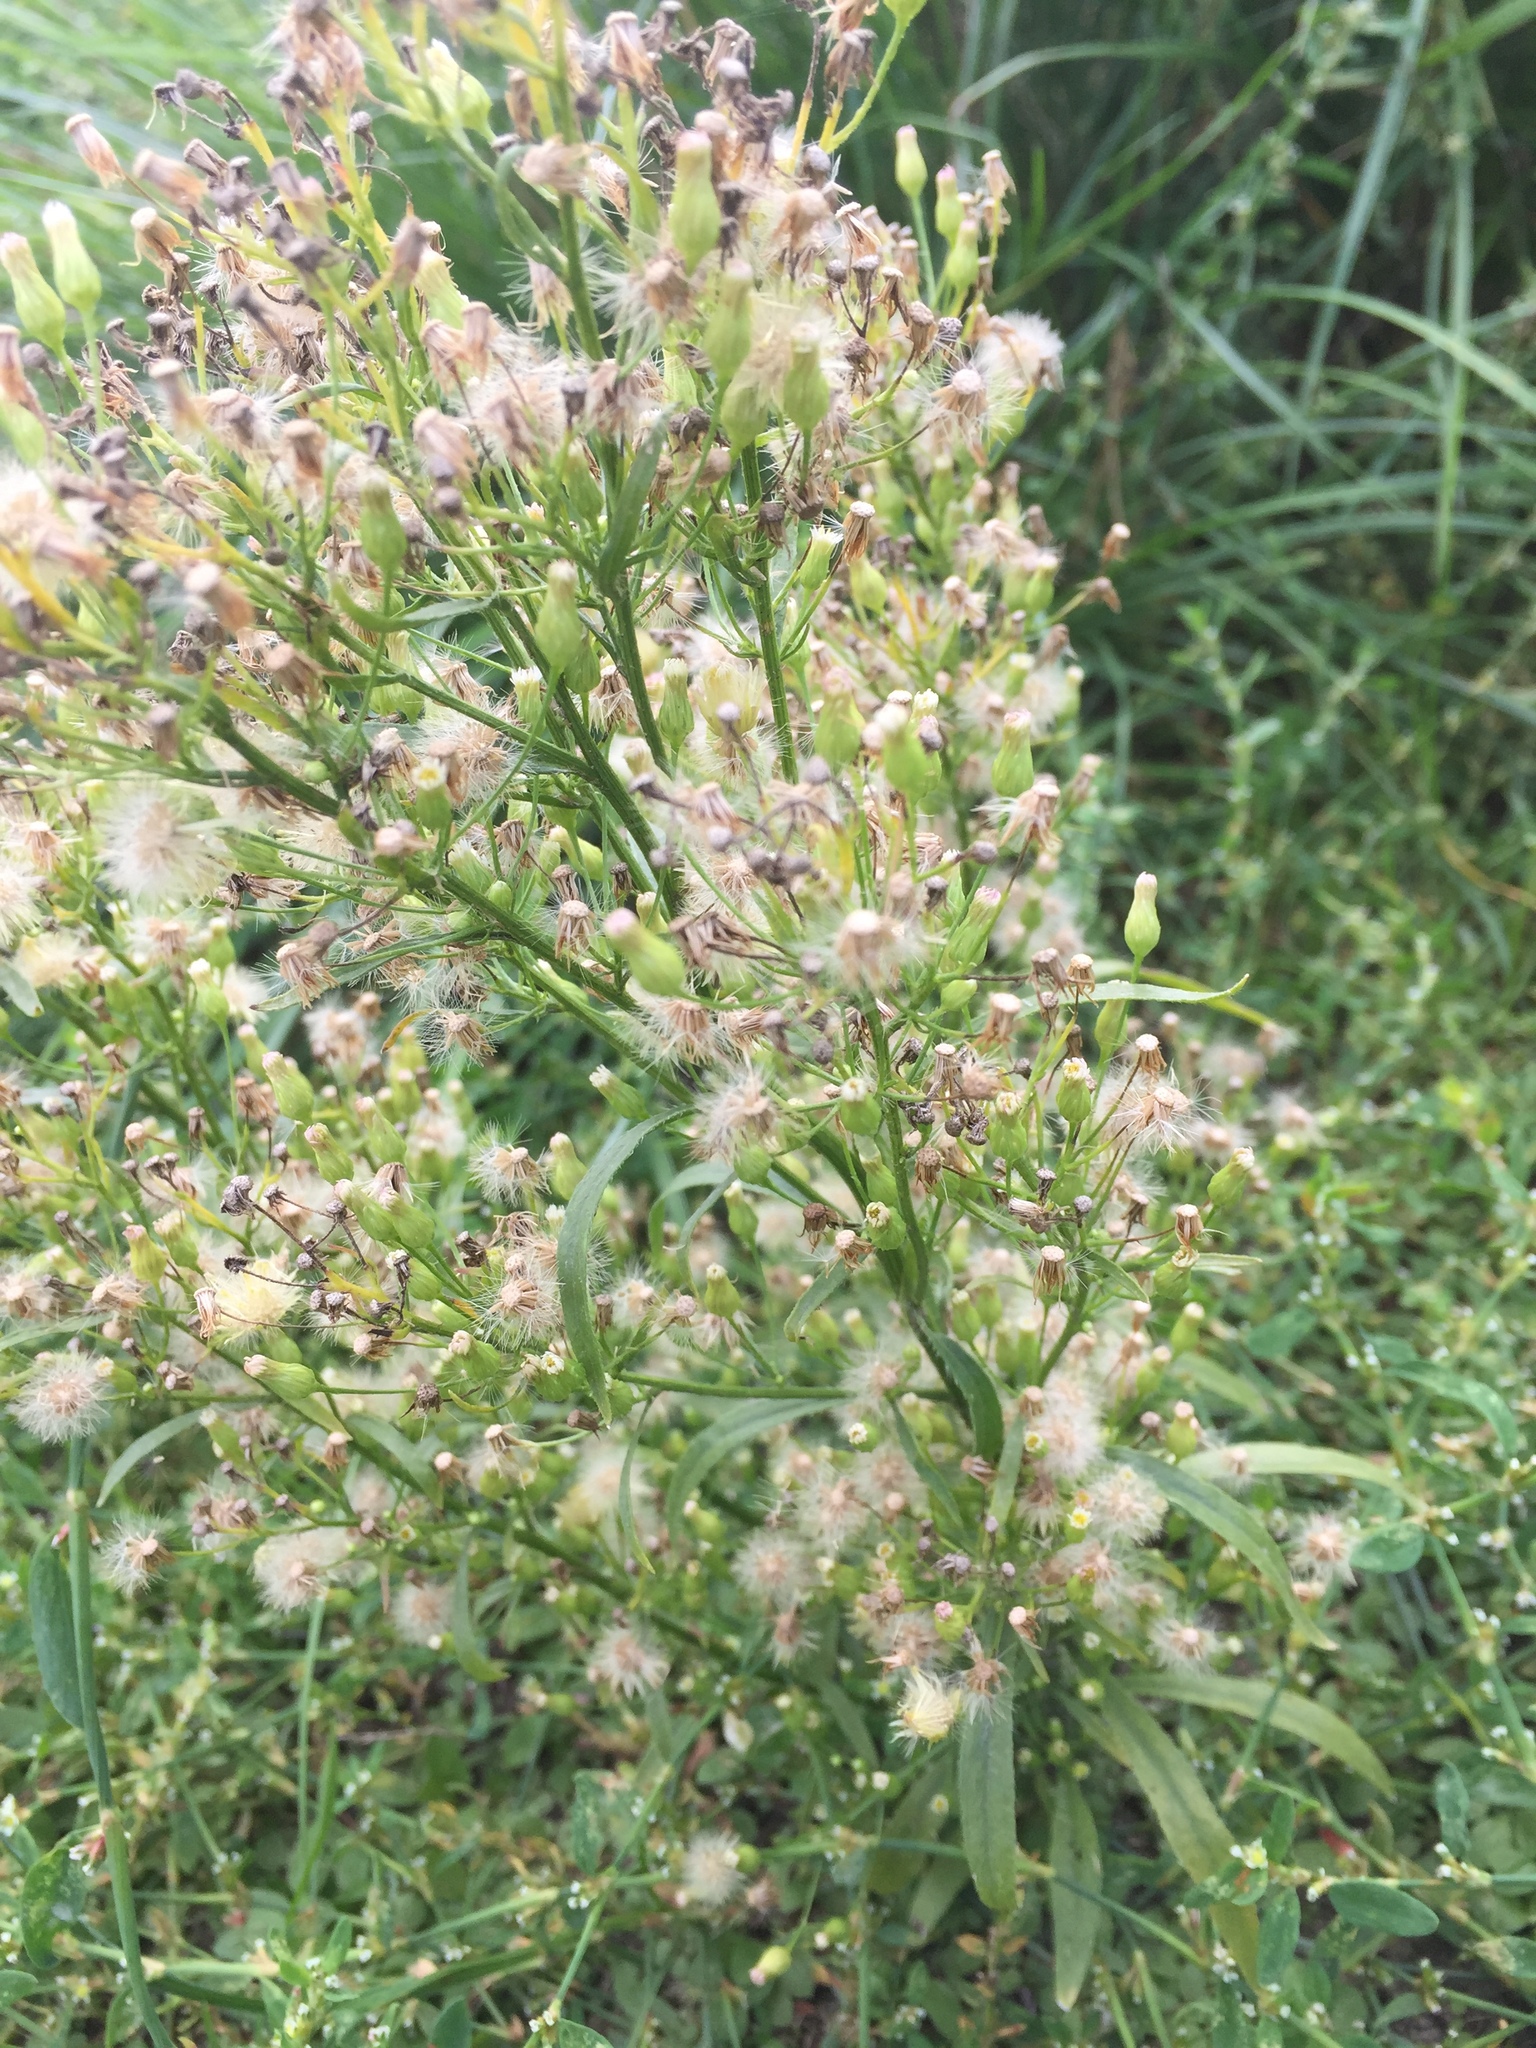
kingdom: Plantae
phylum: Tracheophyta
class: Magnoliopsida
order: Asterales
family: Asteraceae
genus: Erigeron
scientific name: Erigeron canadensis
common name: Canadian fleabane
